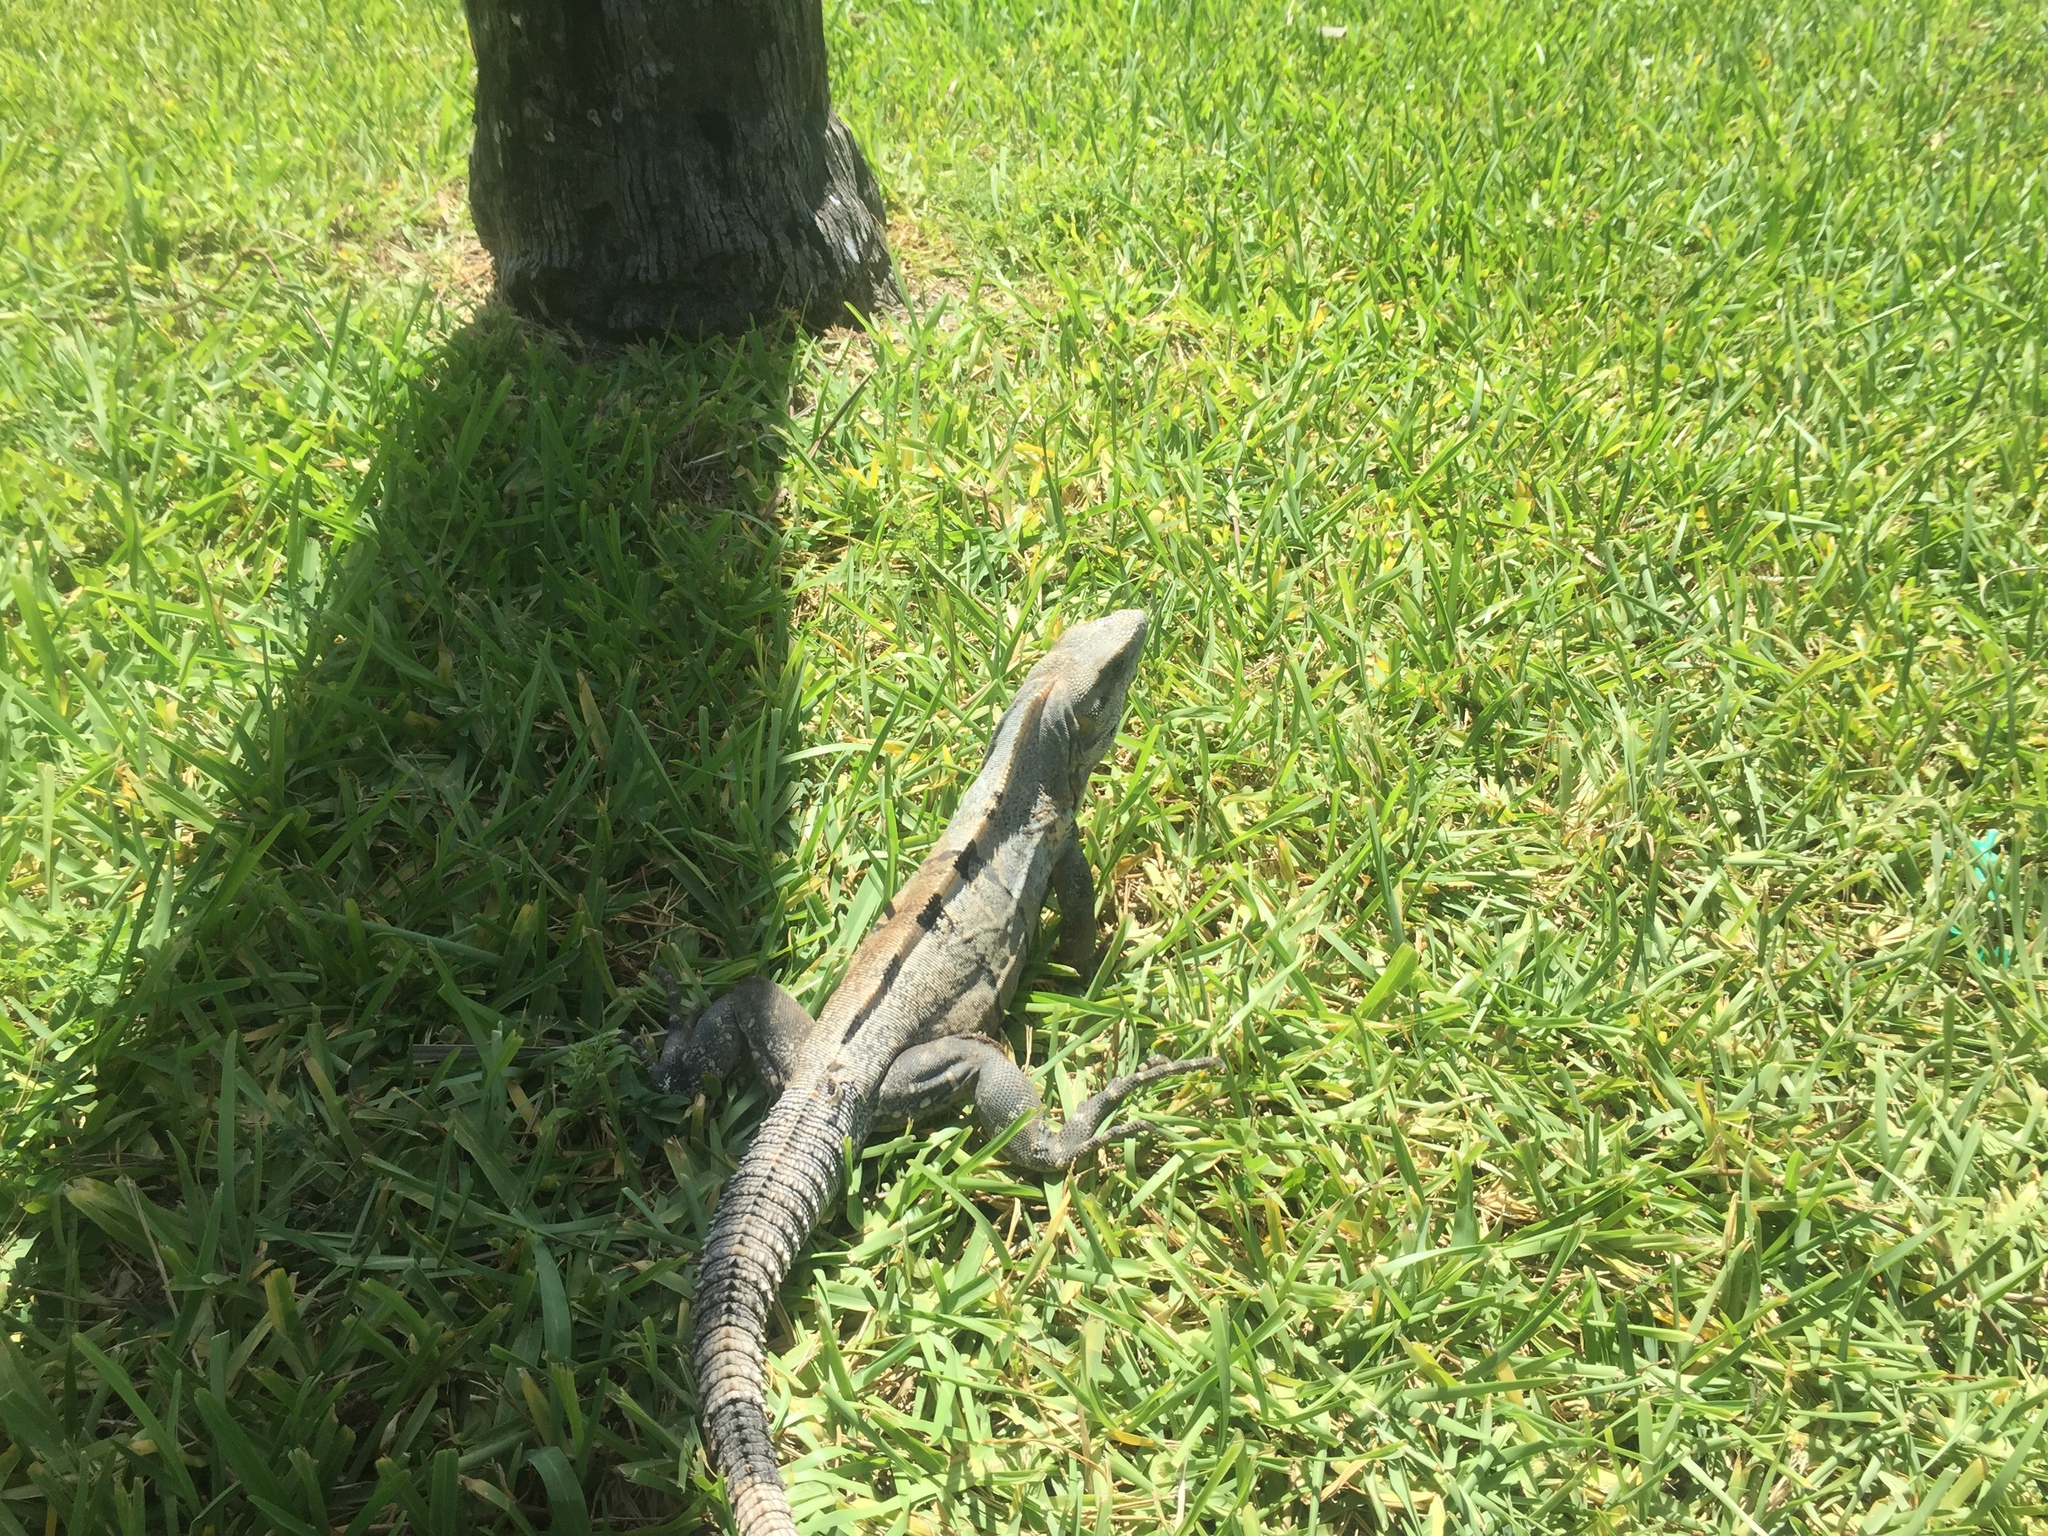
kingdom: Animalia
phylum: Chordata
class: Squamata
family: Iguanidae
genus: Ctenosaura
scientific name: Ctenosaura similis
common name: Black spiny-tailed iguana
